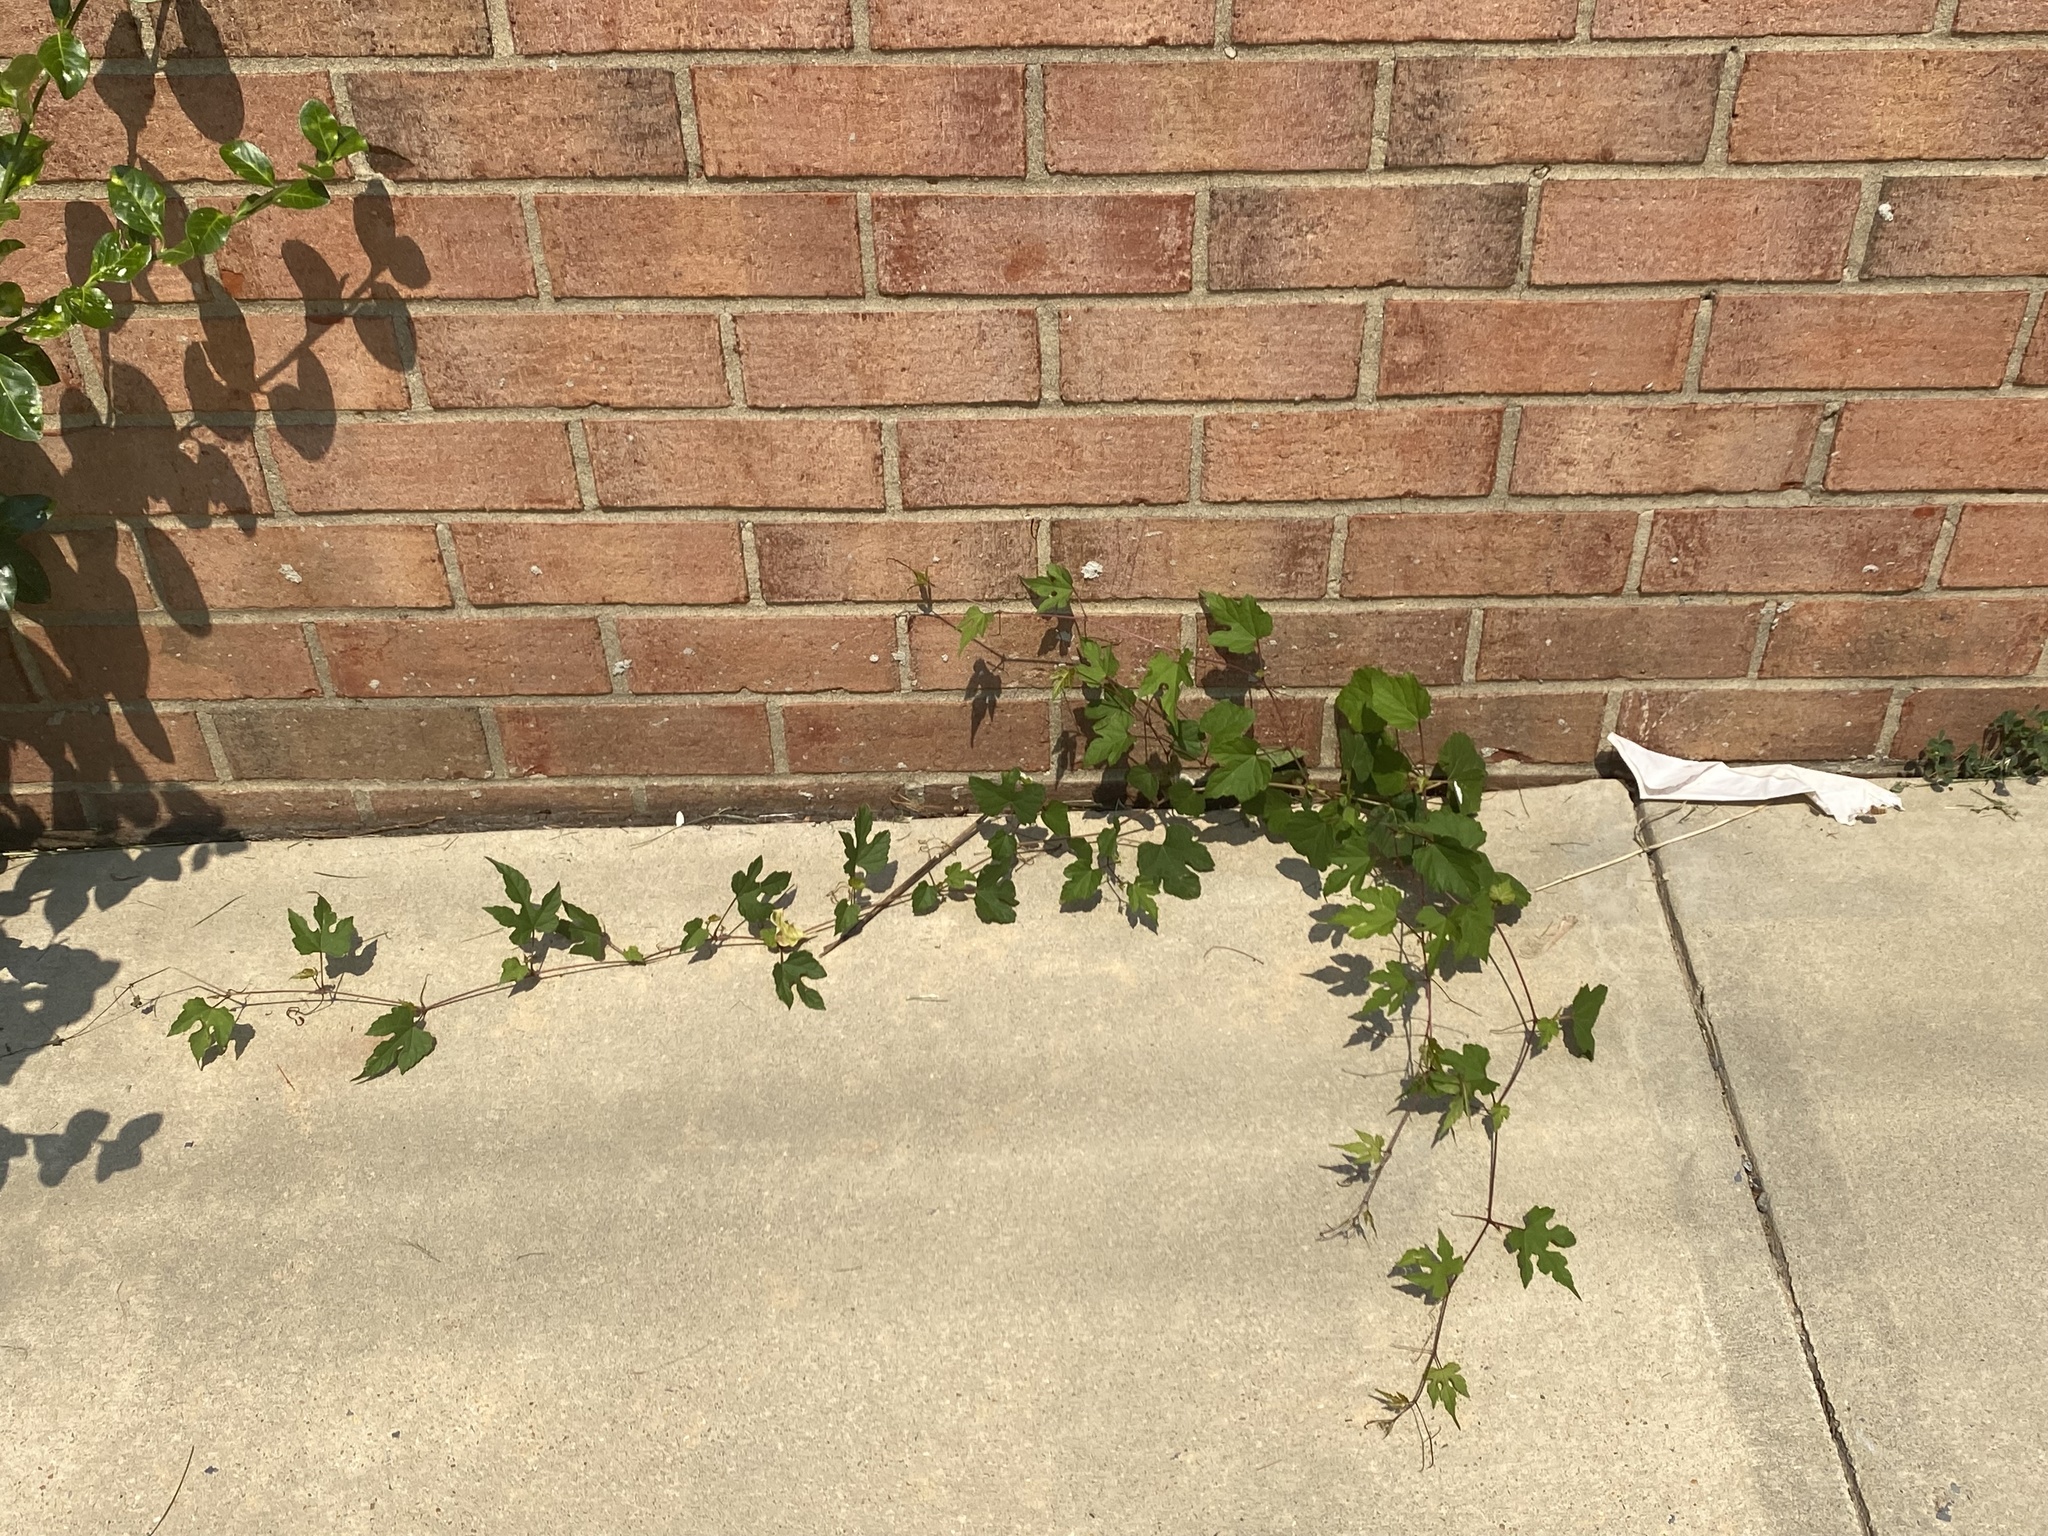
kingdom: Plantae
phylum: Tracheophyta
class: Magnoliopsida
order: Vitales
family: Vitaceae
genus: Ampelopsis
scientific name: Ampelopsis glandulosa
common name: Amur peppervine
